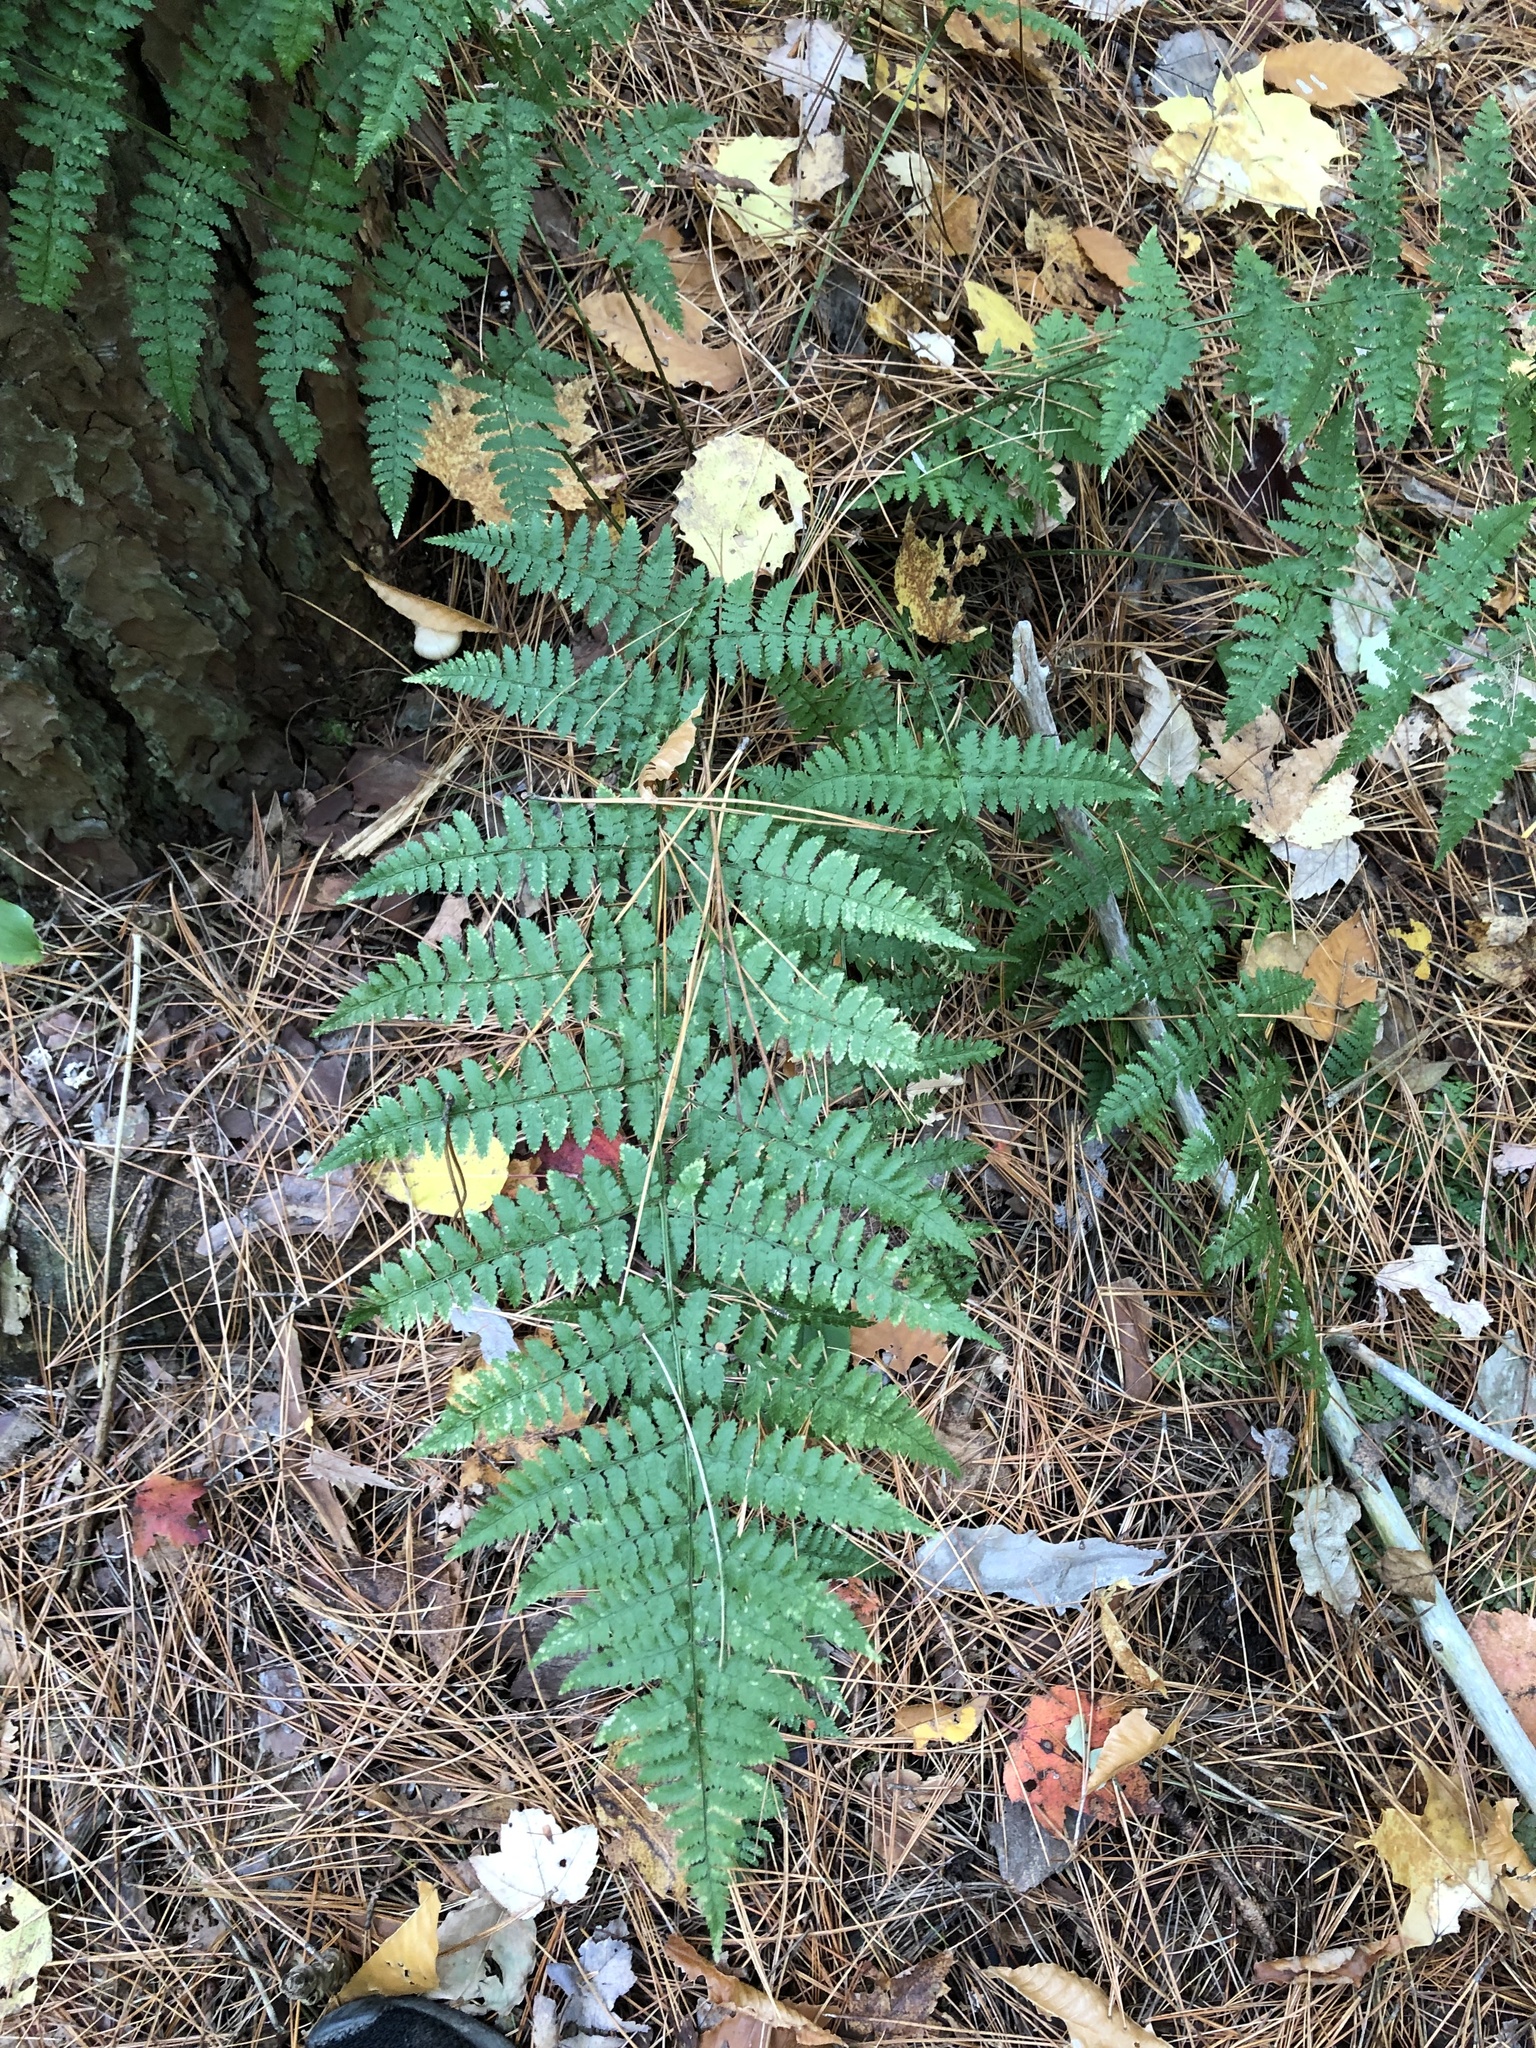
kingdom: Plantae
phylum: Tracheophyta
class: Polypodiopsida
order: Polypodiales
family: Dryopteridaceae
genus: Dryopteris
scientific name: Dryopteris intermedia
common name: Evergreen wood fern
